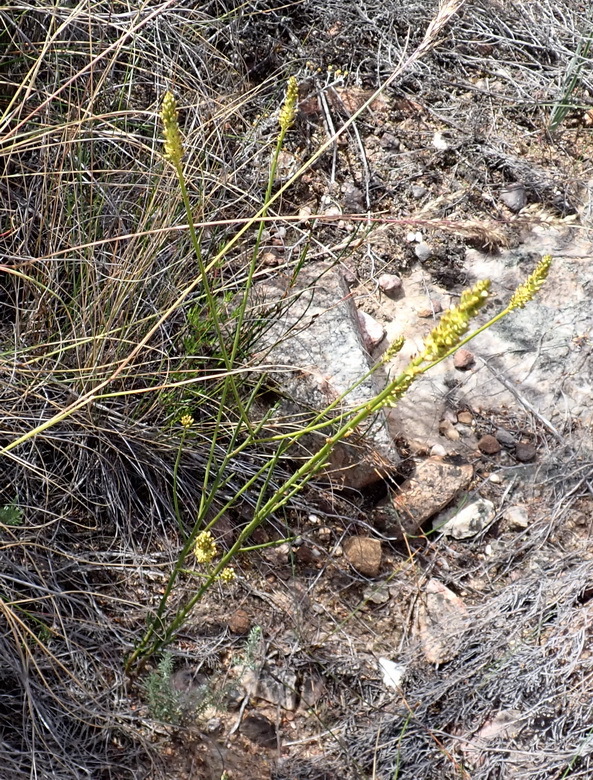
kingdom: Plantae
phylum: Tracheophyta
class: Magnoliopsida
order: Santalales
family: Thesiaceae
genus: Thesium
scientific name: Thesium spicatum
